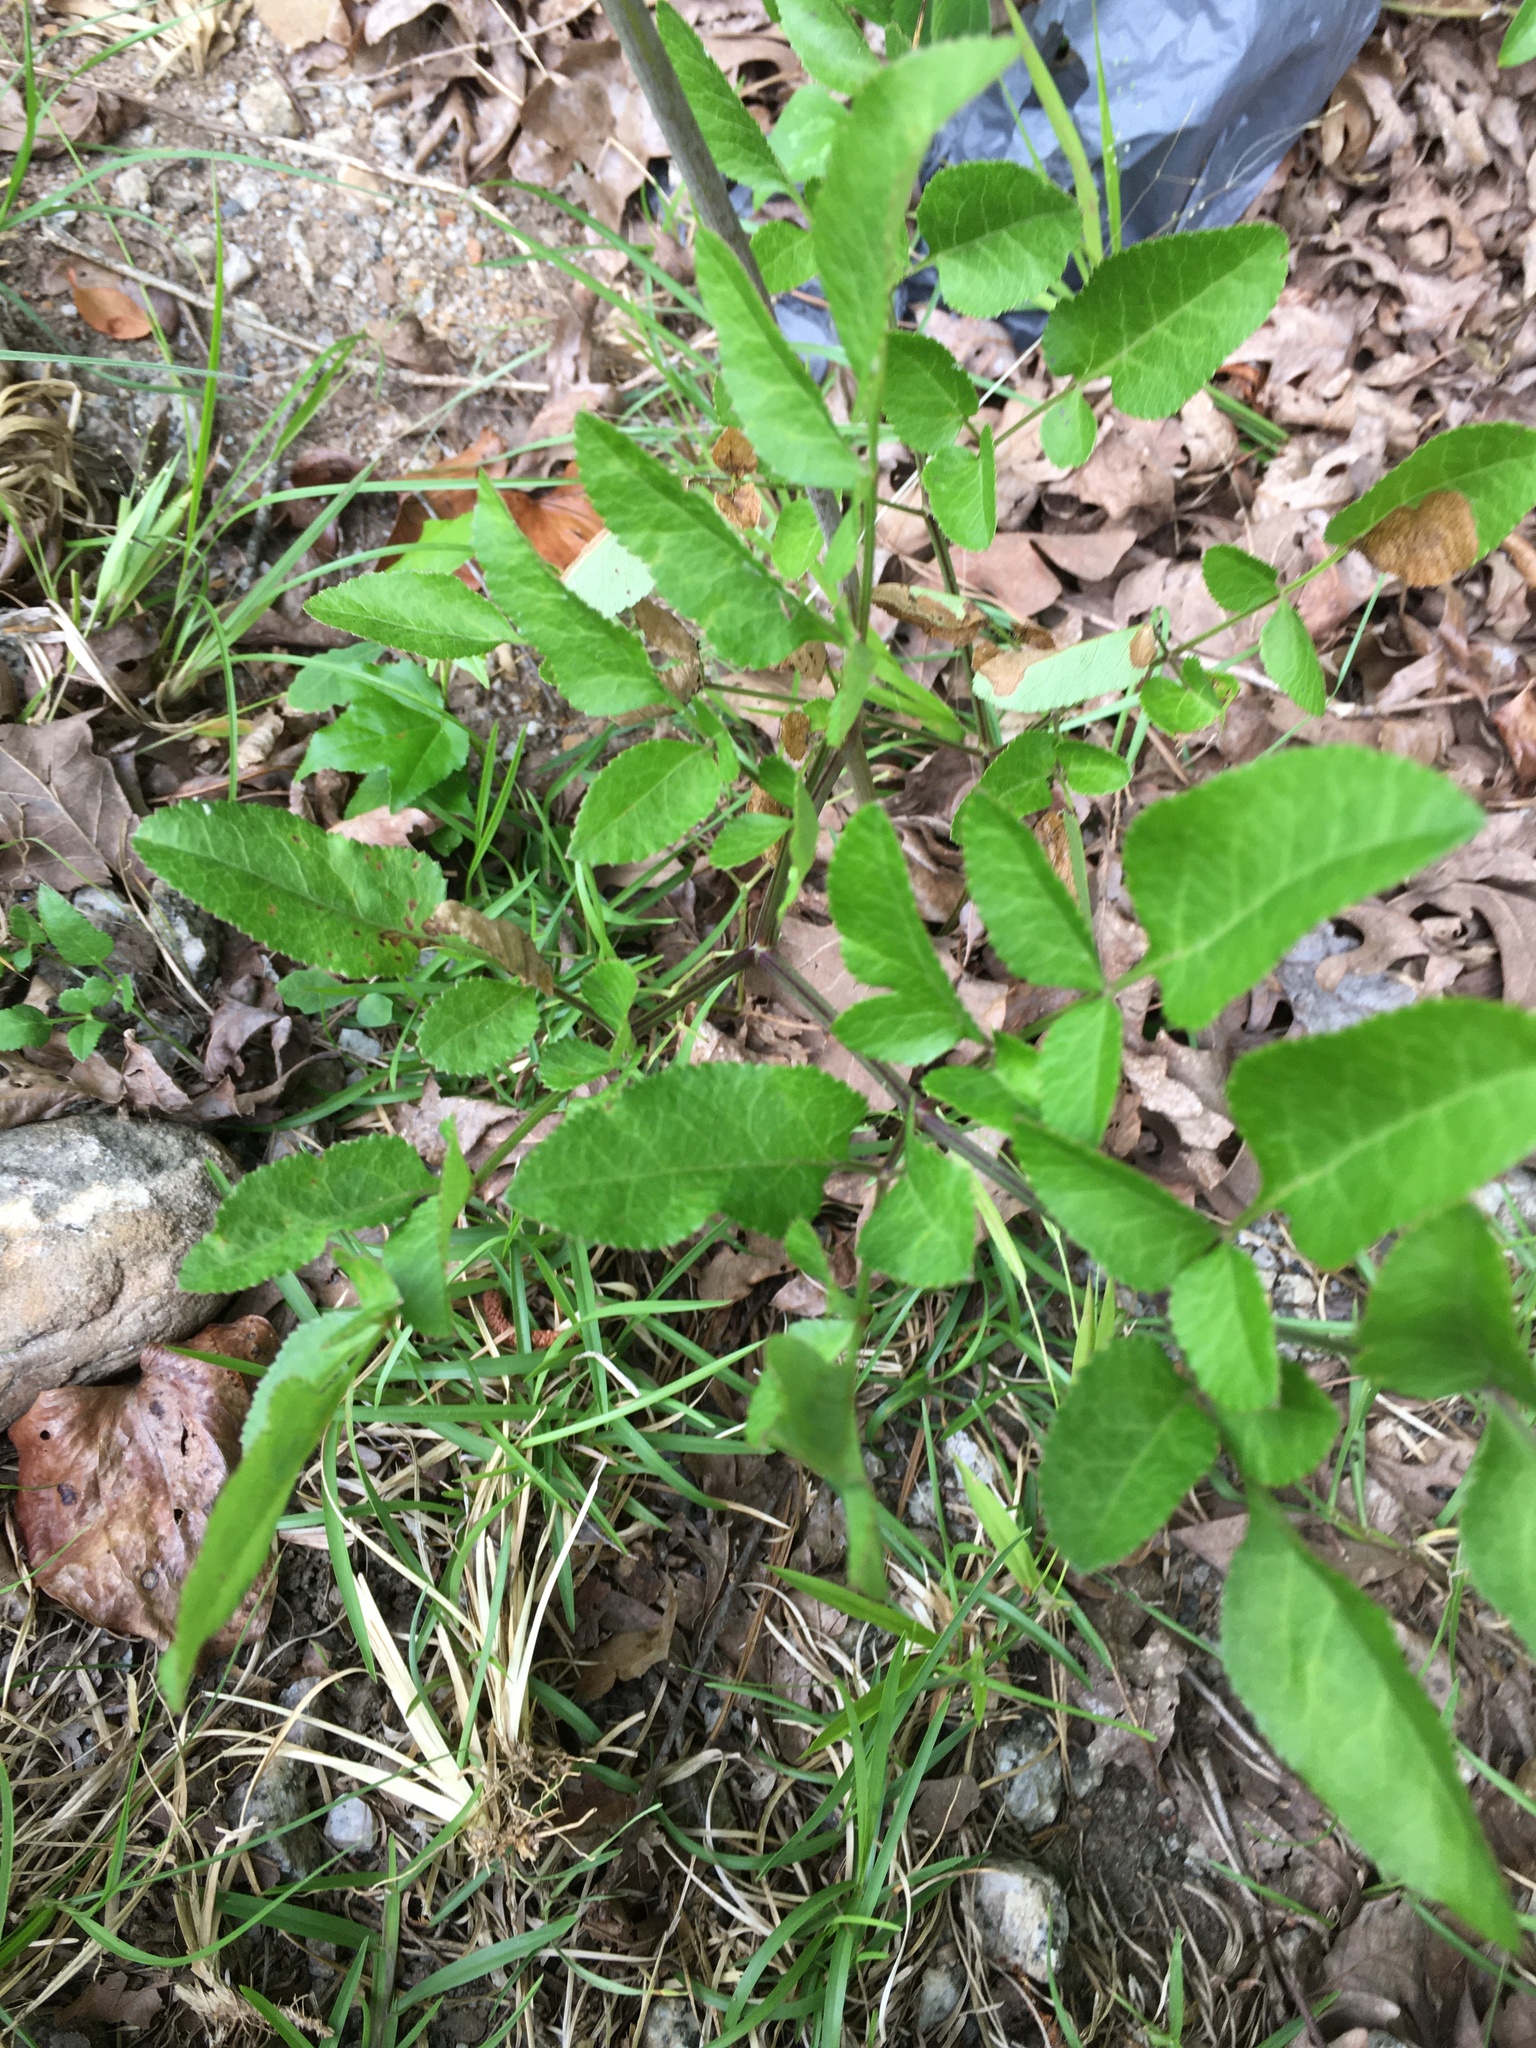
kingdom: Plantae
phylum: Tracheophyta
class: Magnoliopsida
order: Apiales
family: Apiaceae
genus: Angelica
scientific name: Angelica venenosa
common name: Hairy angelica
